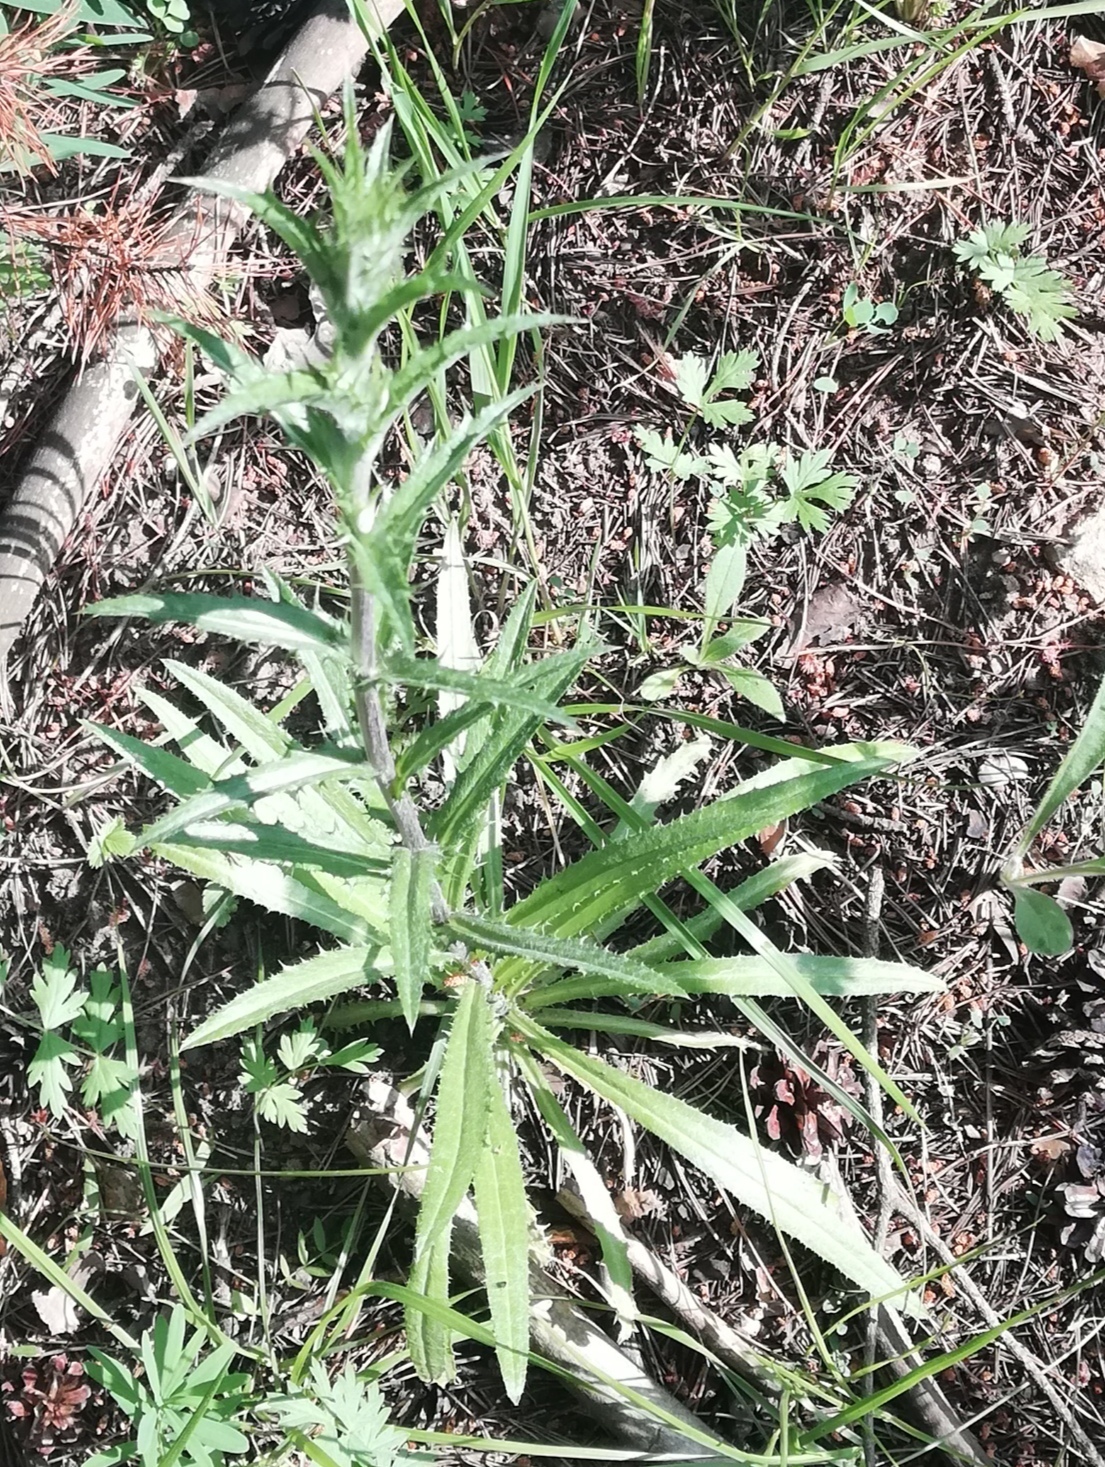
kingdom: Plantae
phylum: Tracheophyta
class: Magnoliopsida
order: Asterales
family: Asteraceae
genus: Carlina
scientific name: Carlina biebersteinii
